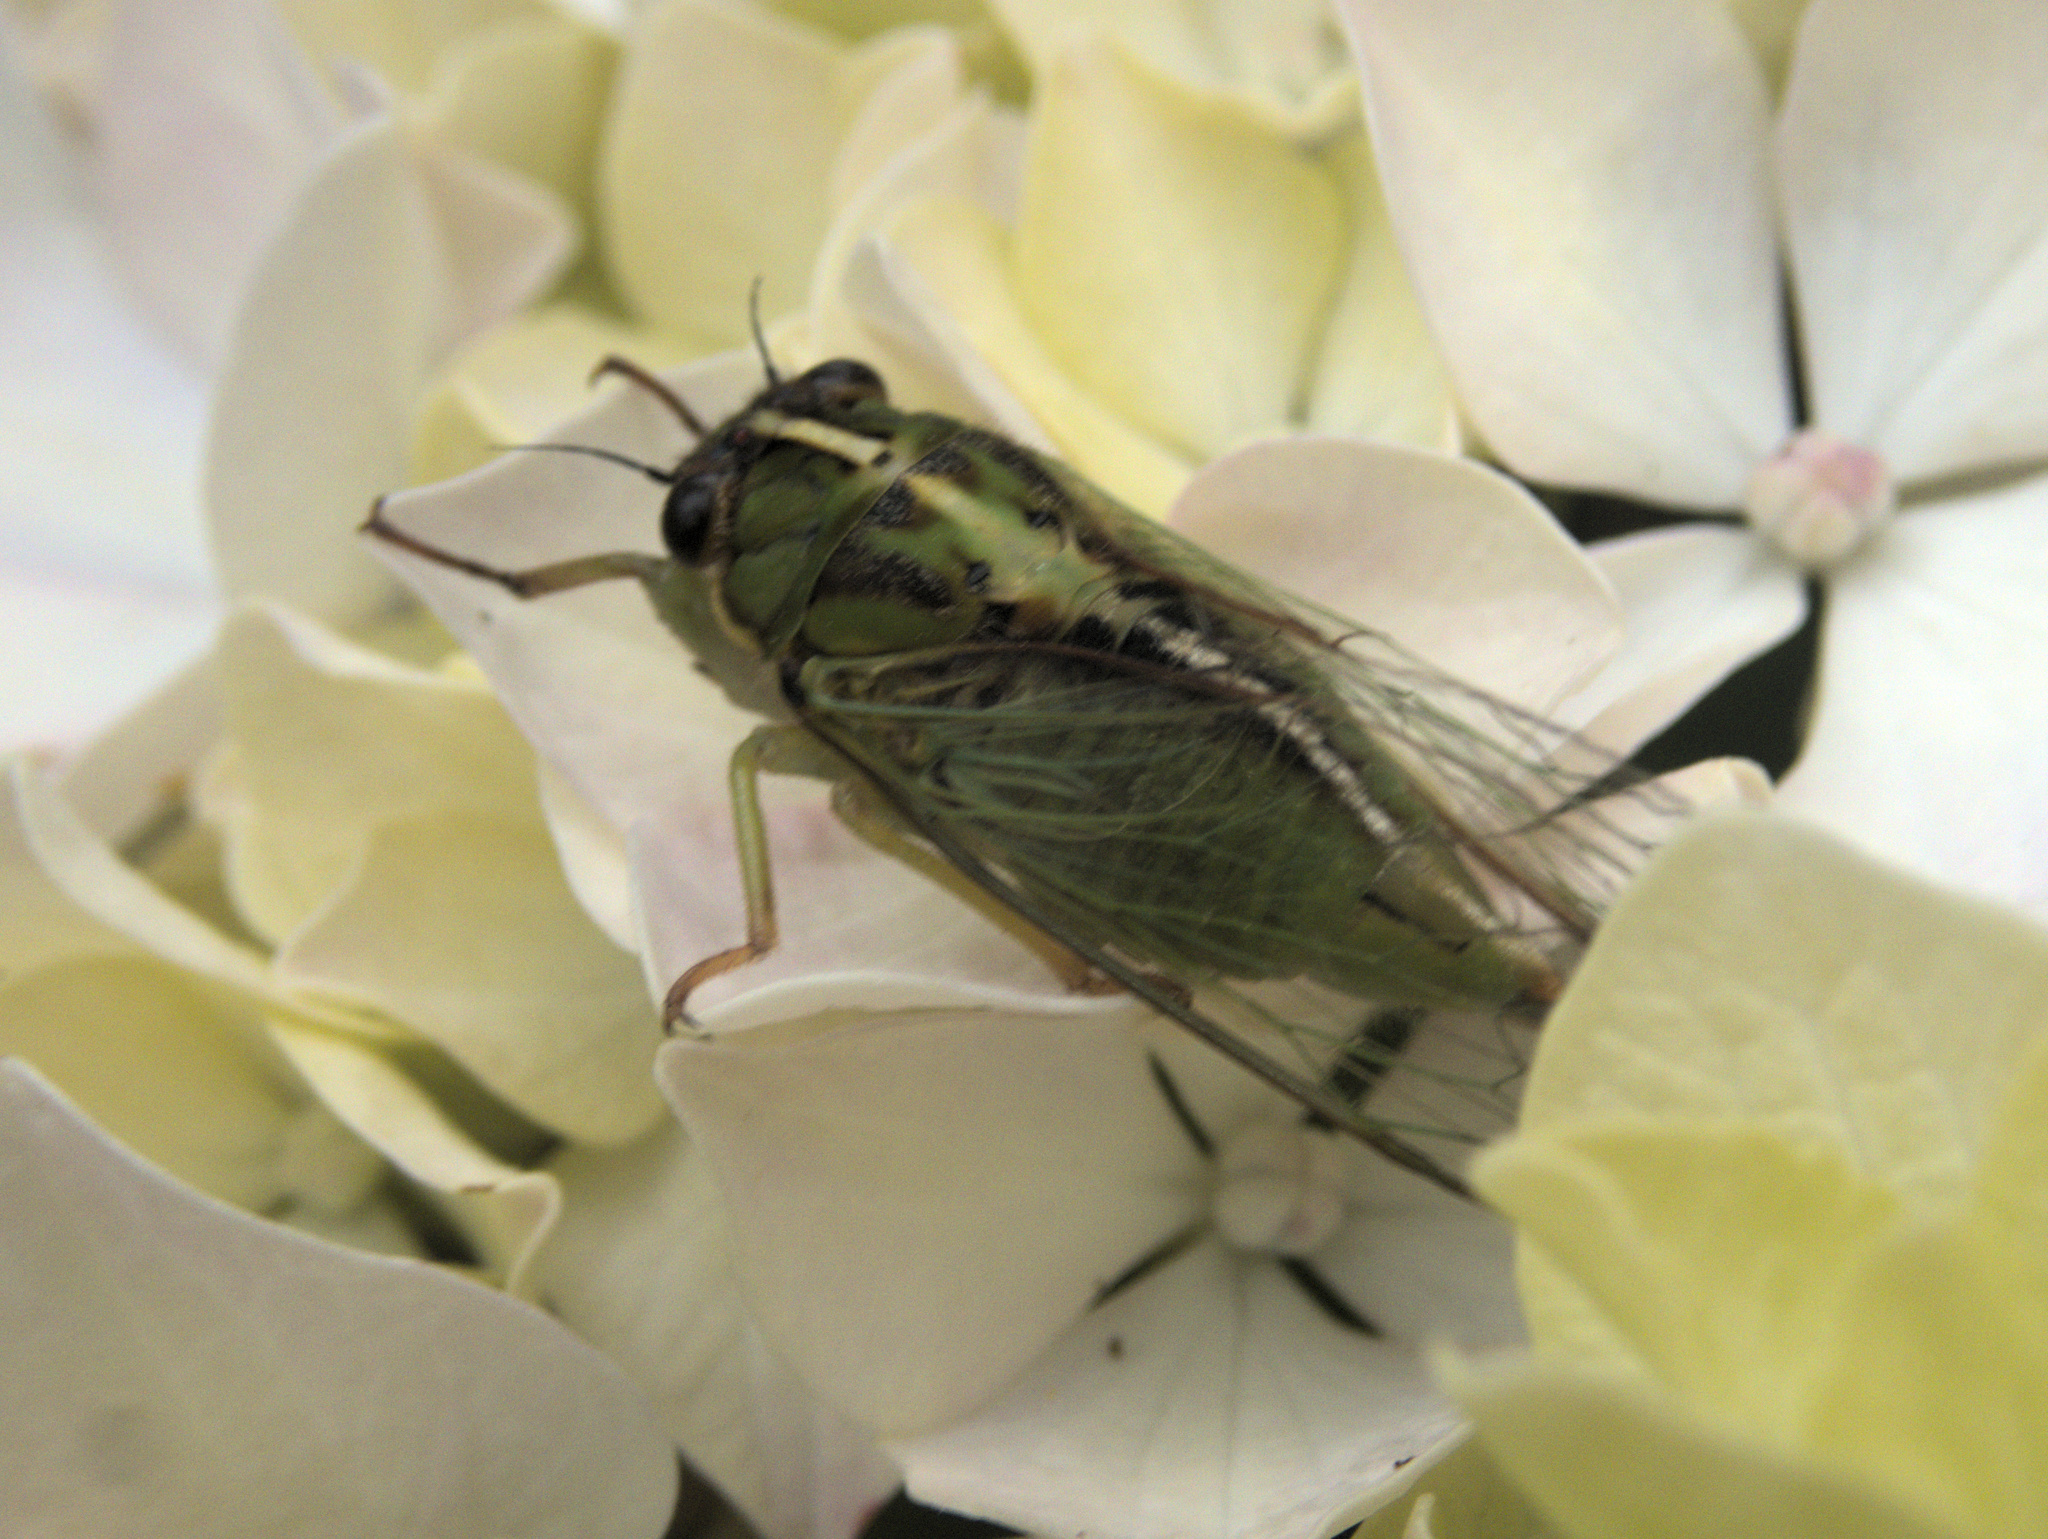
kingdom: Animalia
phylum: Arthropoda
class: Insecta
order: Hemiptera
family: Cicadidae
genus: Kikihia
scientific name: Kikihia longula
